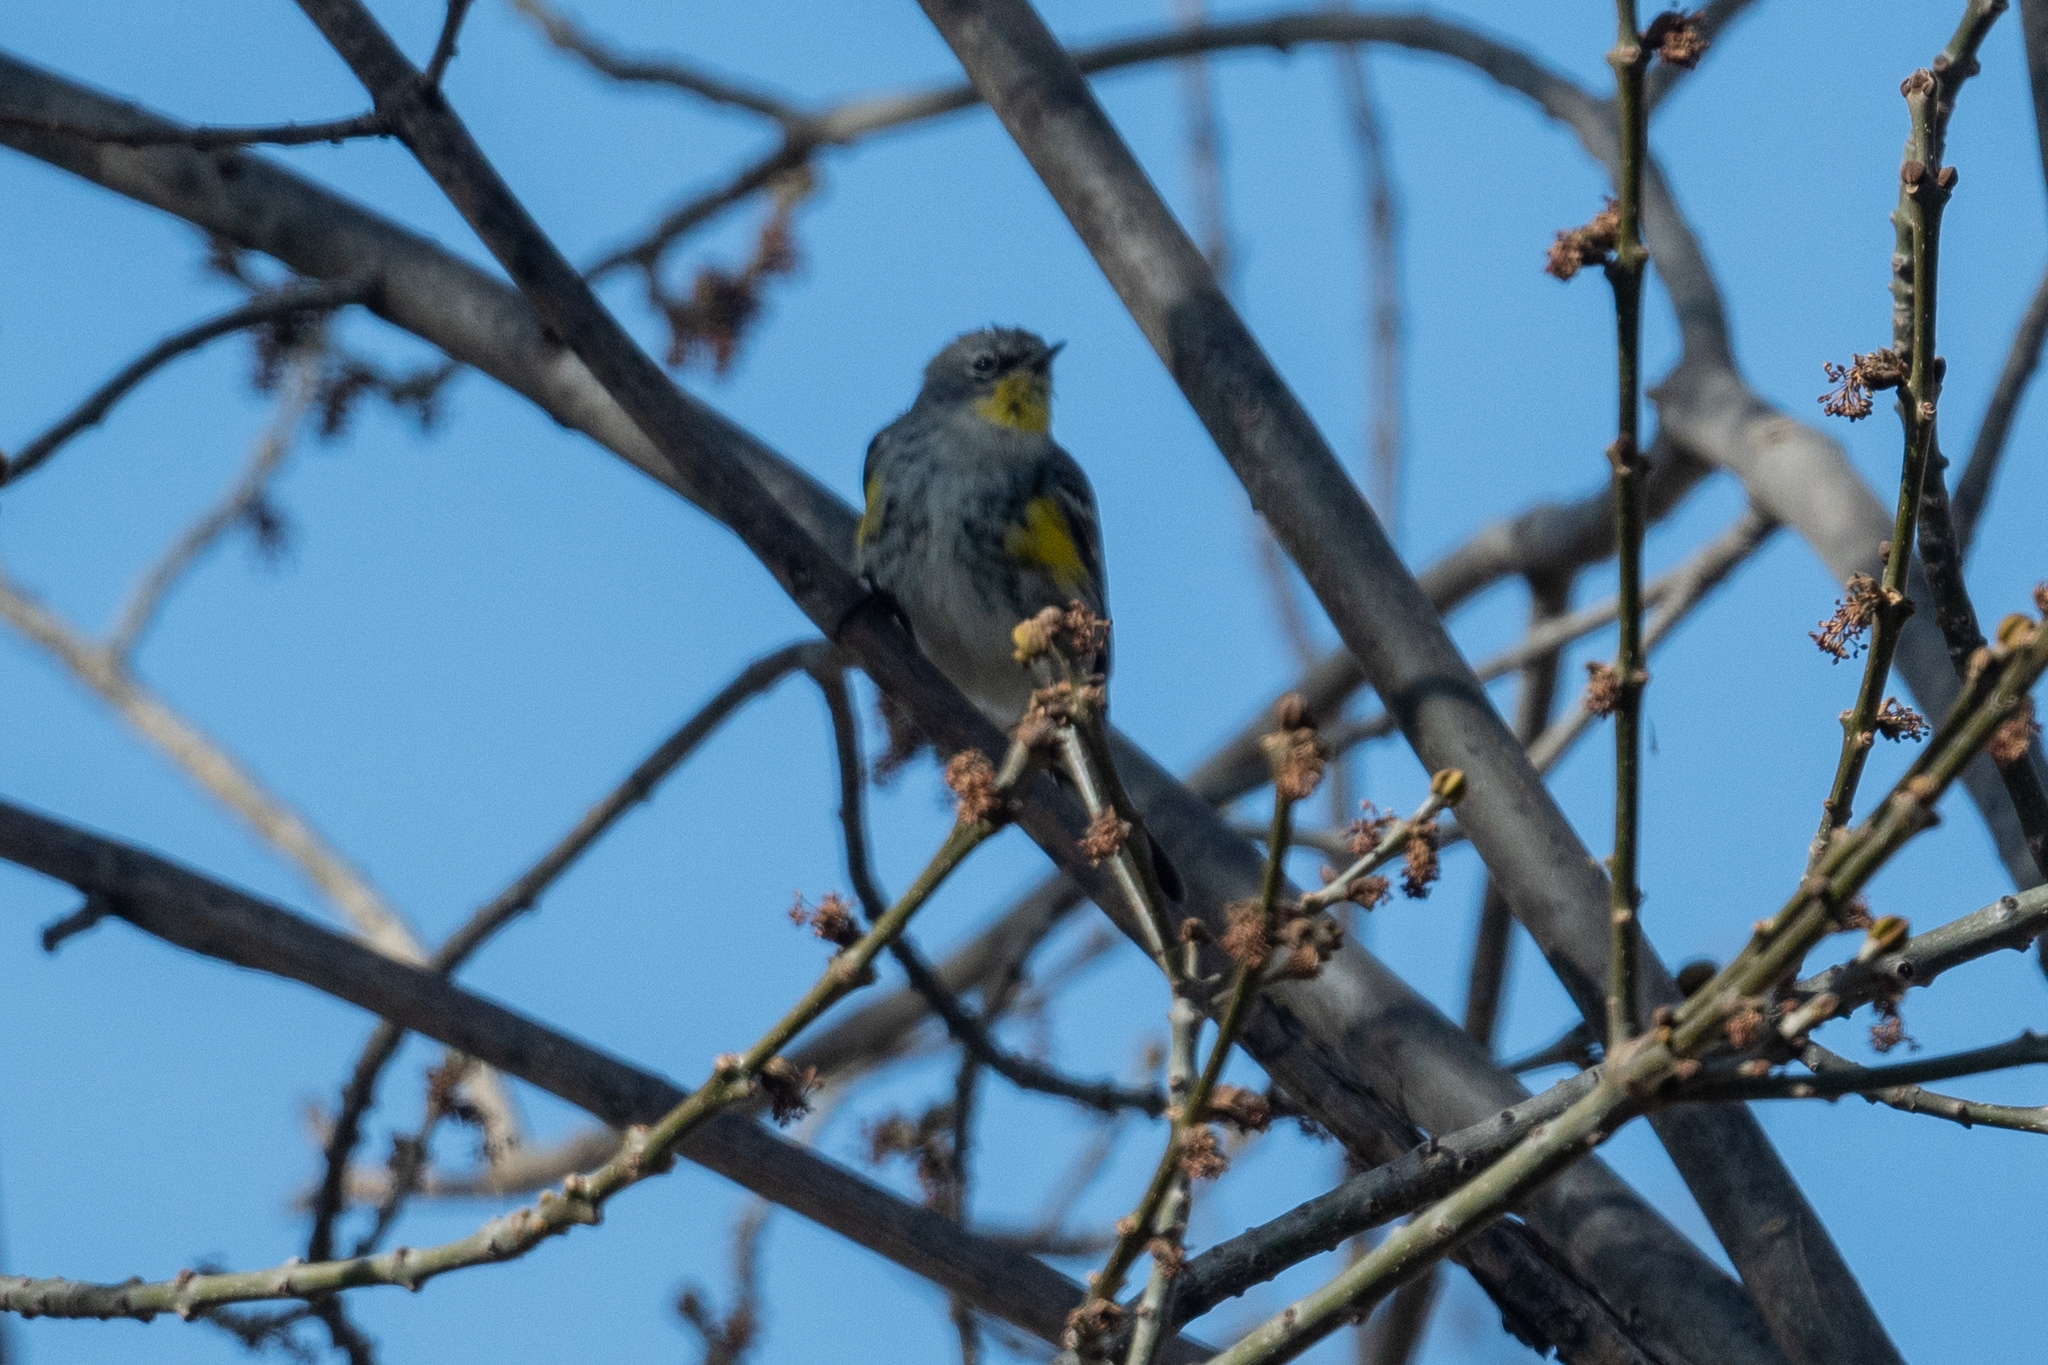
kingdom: Animalia
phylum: Chordata
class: Aves
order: Passeriformes
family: Parulidae
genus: Setophaga
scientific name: Setophaga coronata
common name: Myrtle warbler
